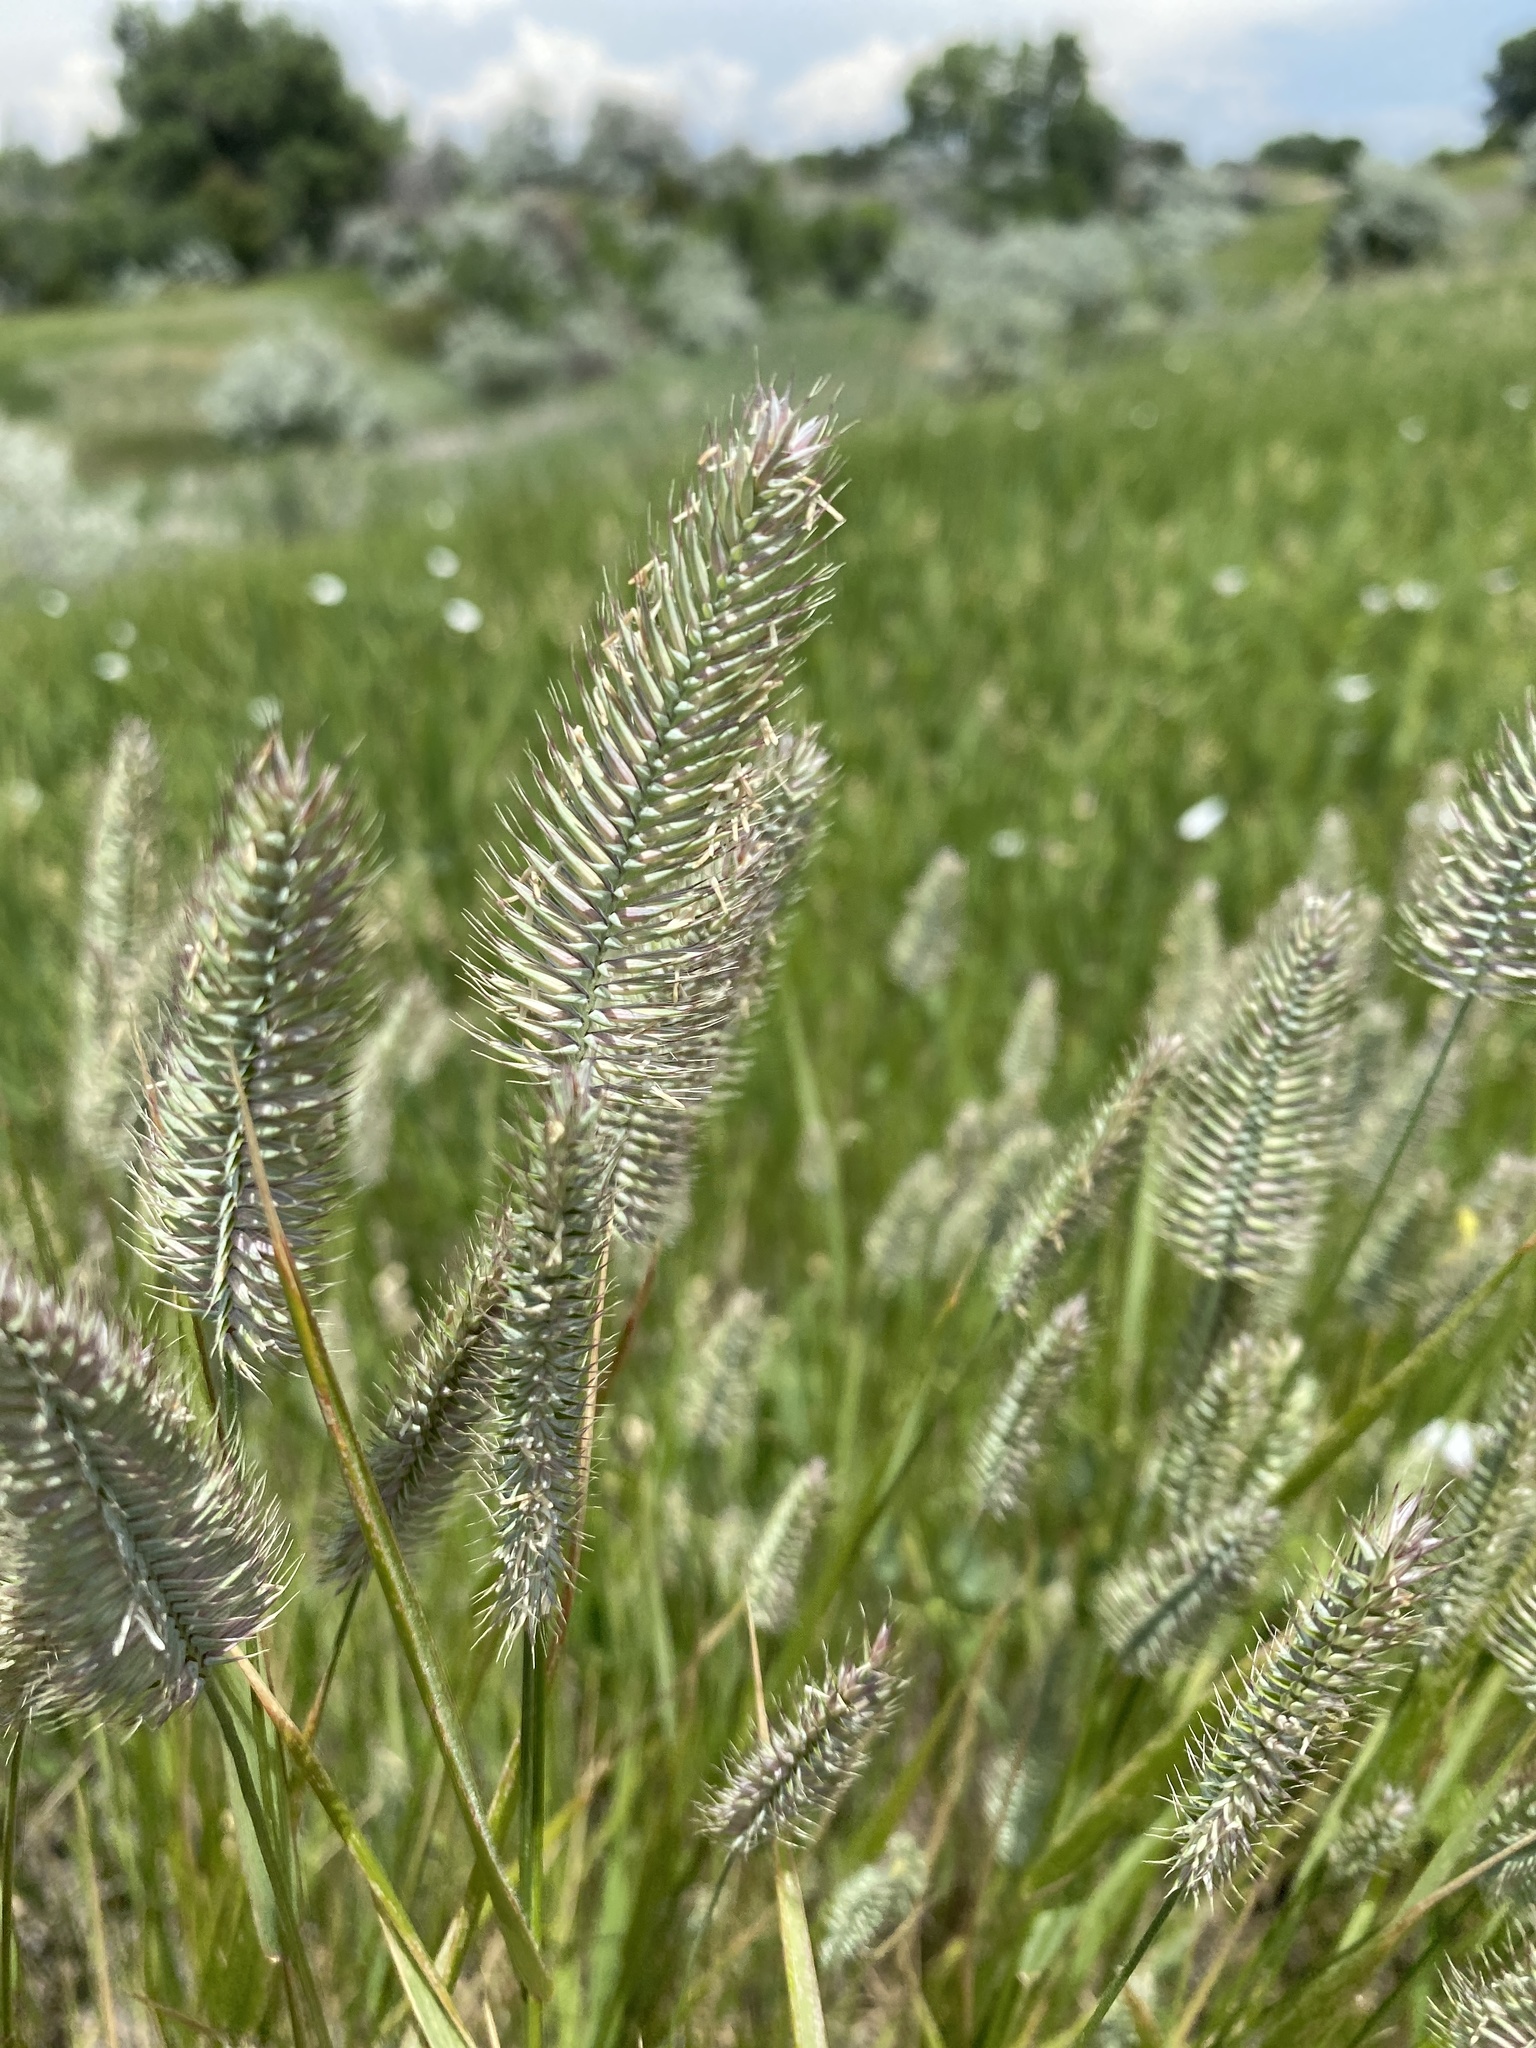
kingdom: Plantae
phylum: Tracheophyta
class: Liliopsida
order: Poales
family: Poaceae
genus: Agropyron
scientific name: Agropyron cristatum
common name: Crested wheatgrass
